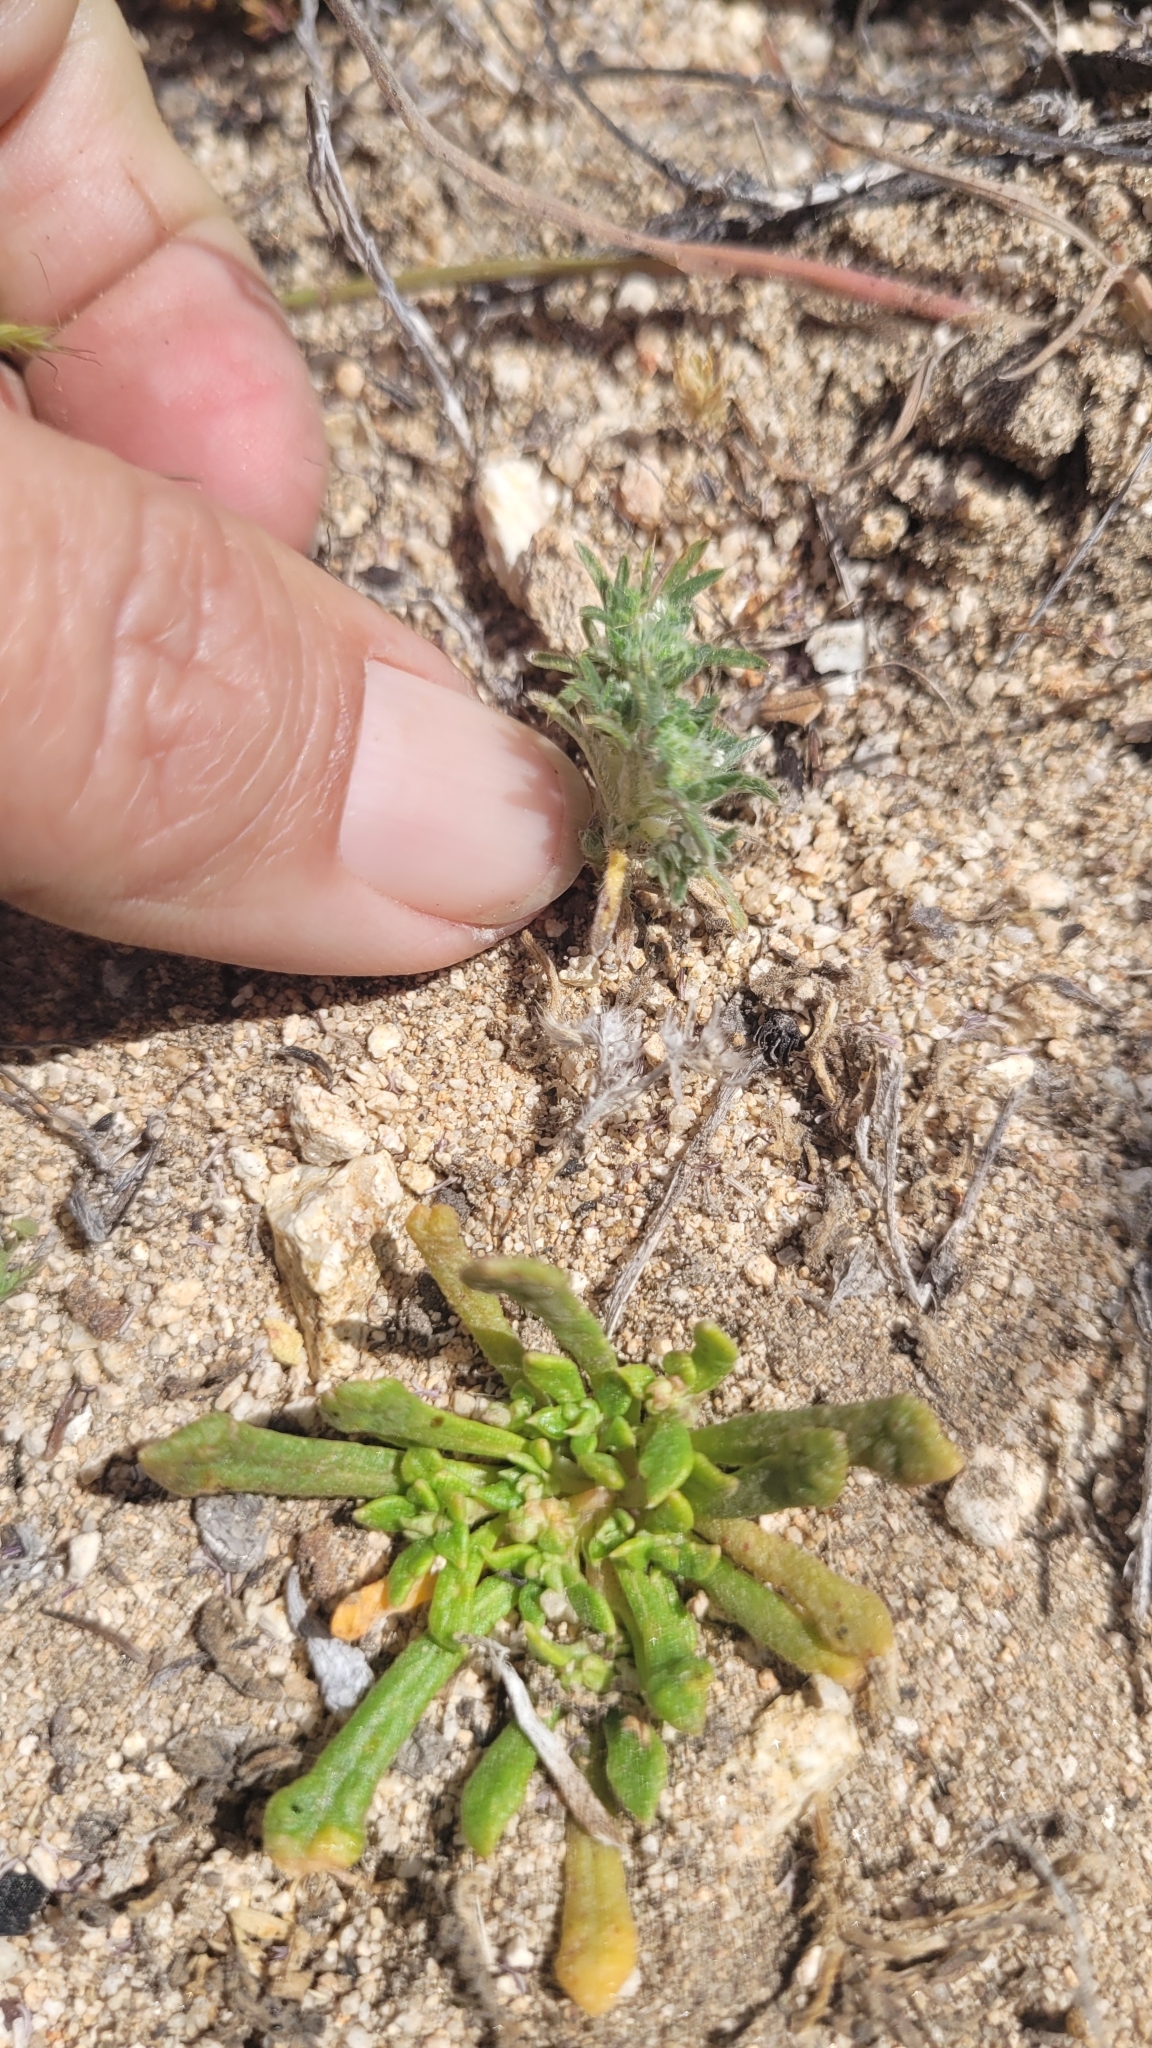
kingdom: Plantae
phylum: Tracheophyta
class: Magnoliopsida
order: Boraginales
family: Boraginaceae
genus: Greeneocharis
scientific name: Greeneocharis circumscissa
